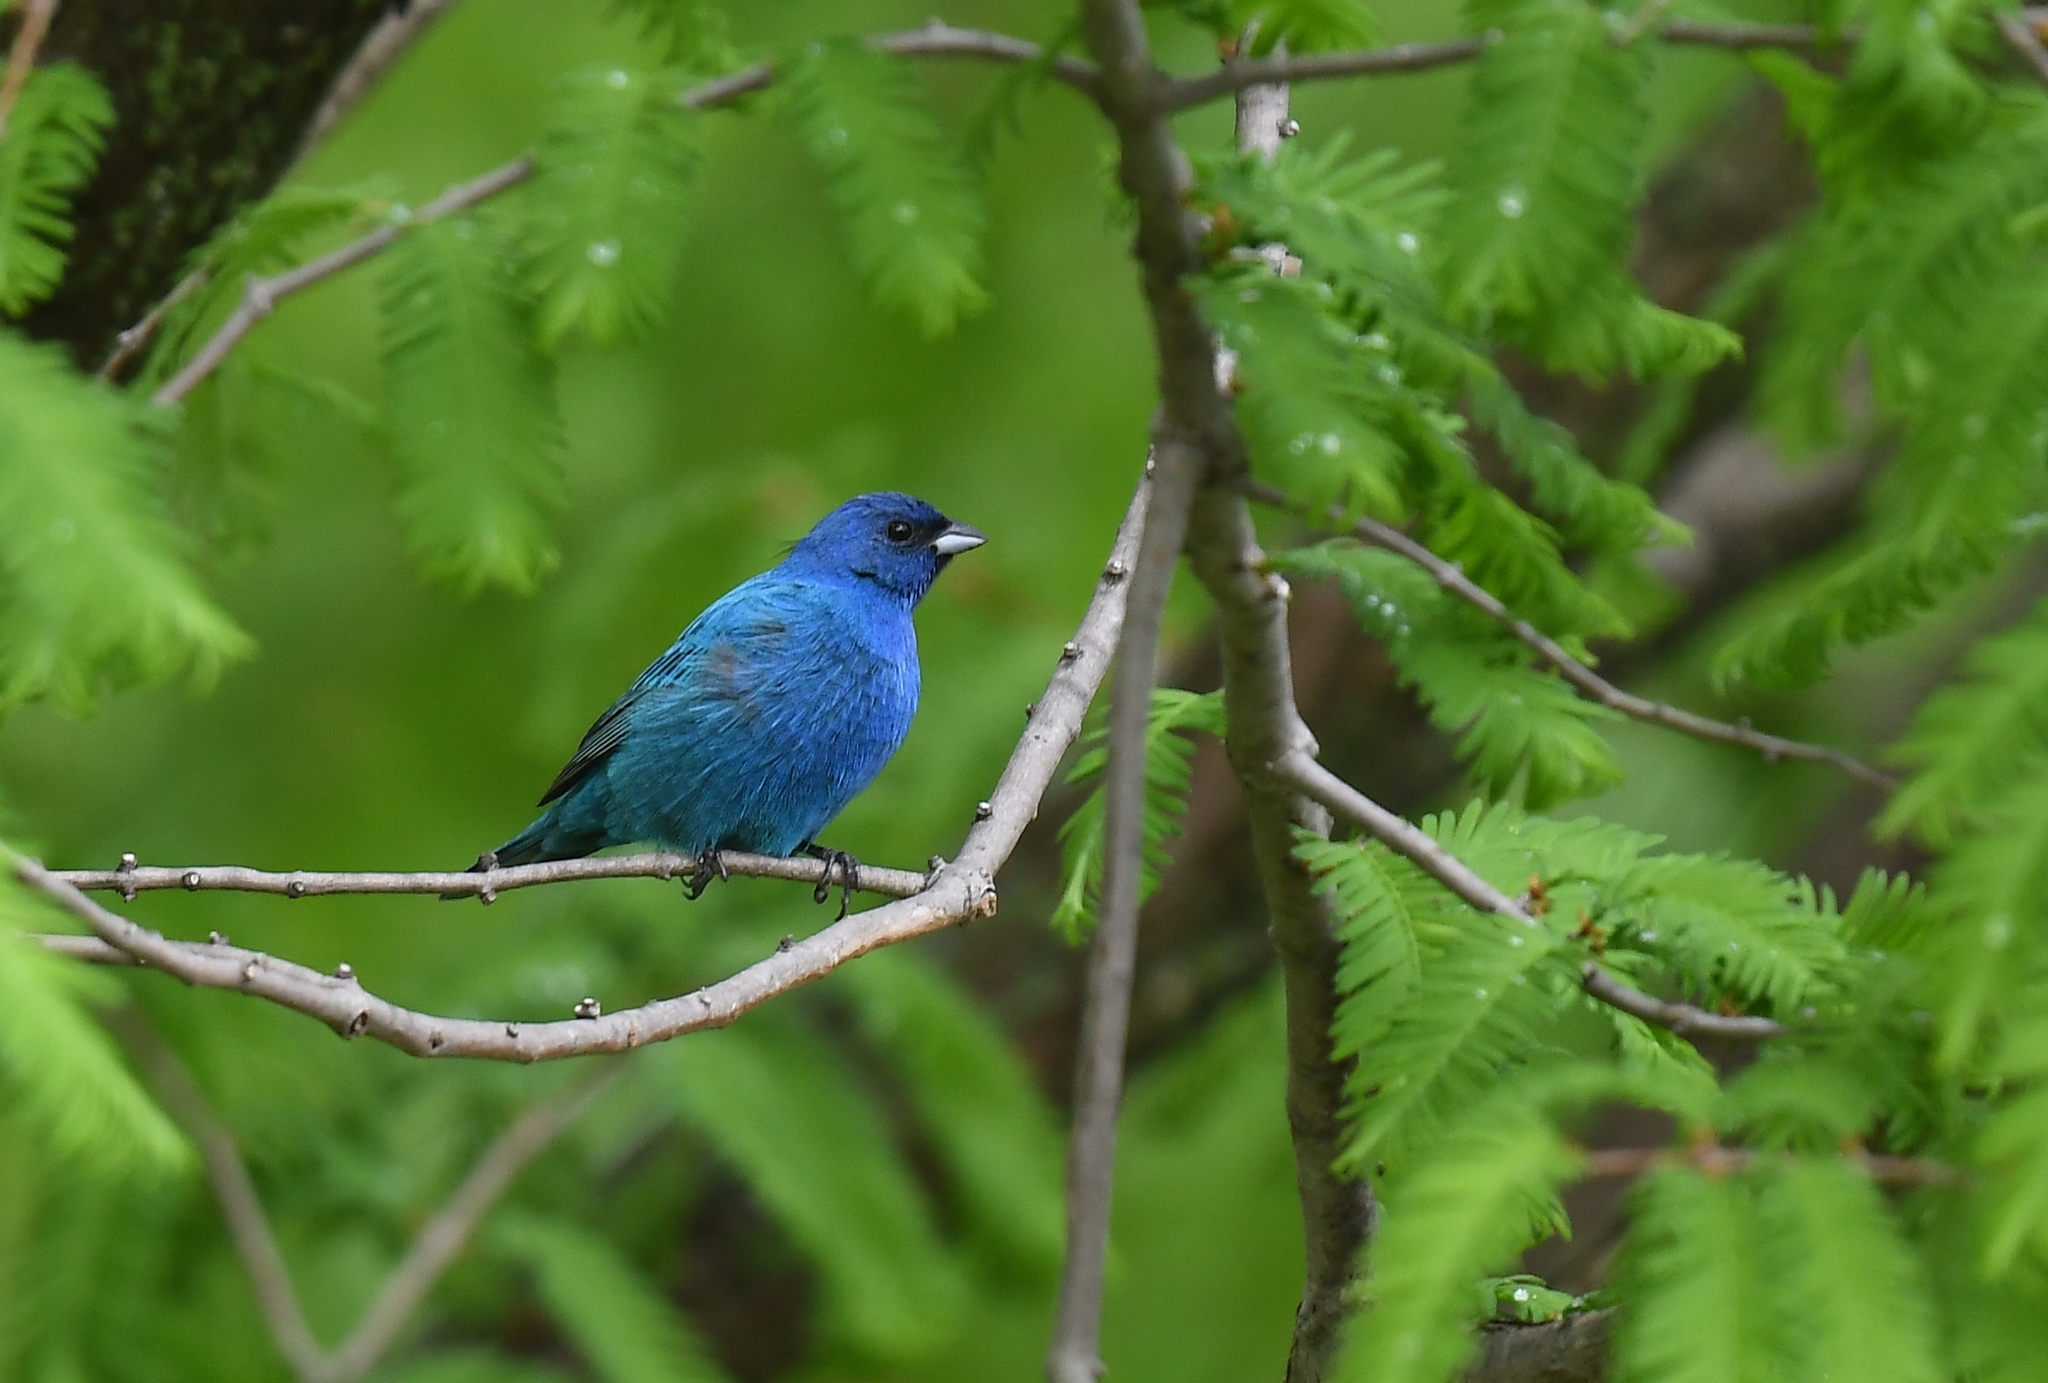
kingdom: Animalia
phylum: Chordata
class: Aves
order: Passeriformes
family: Cardinalidae
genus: Passerina
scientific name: Passerina cyanea
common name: Indigo bunting
